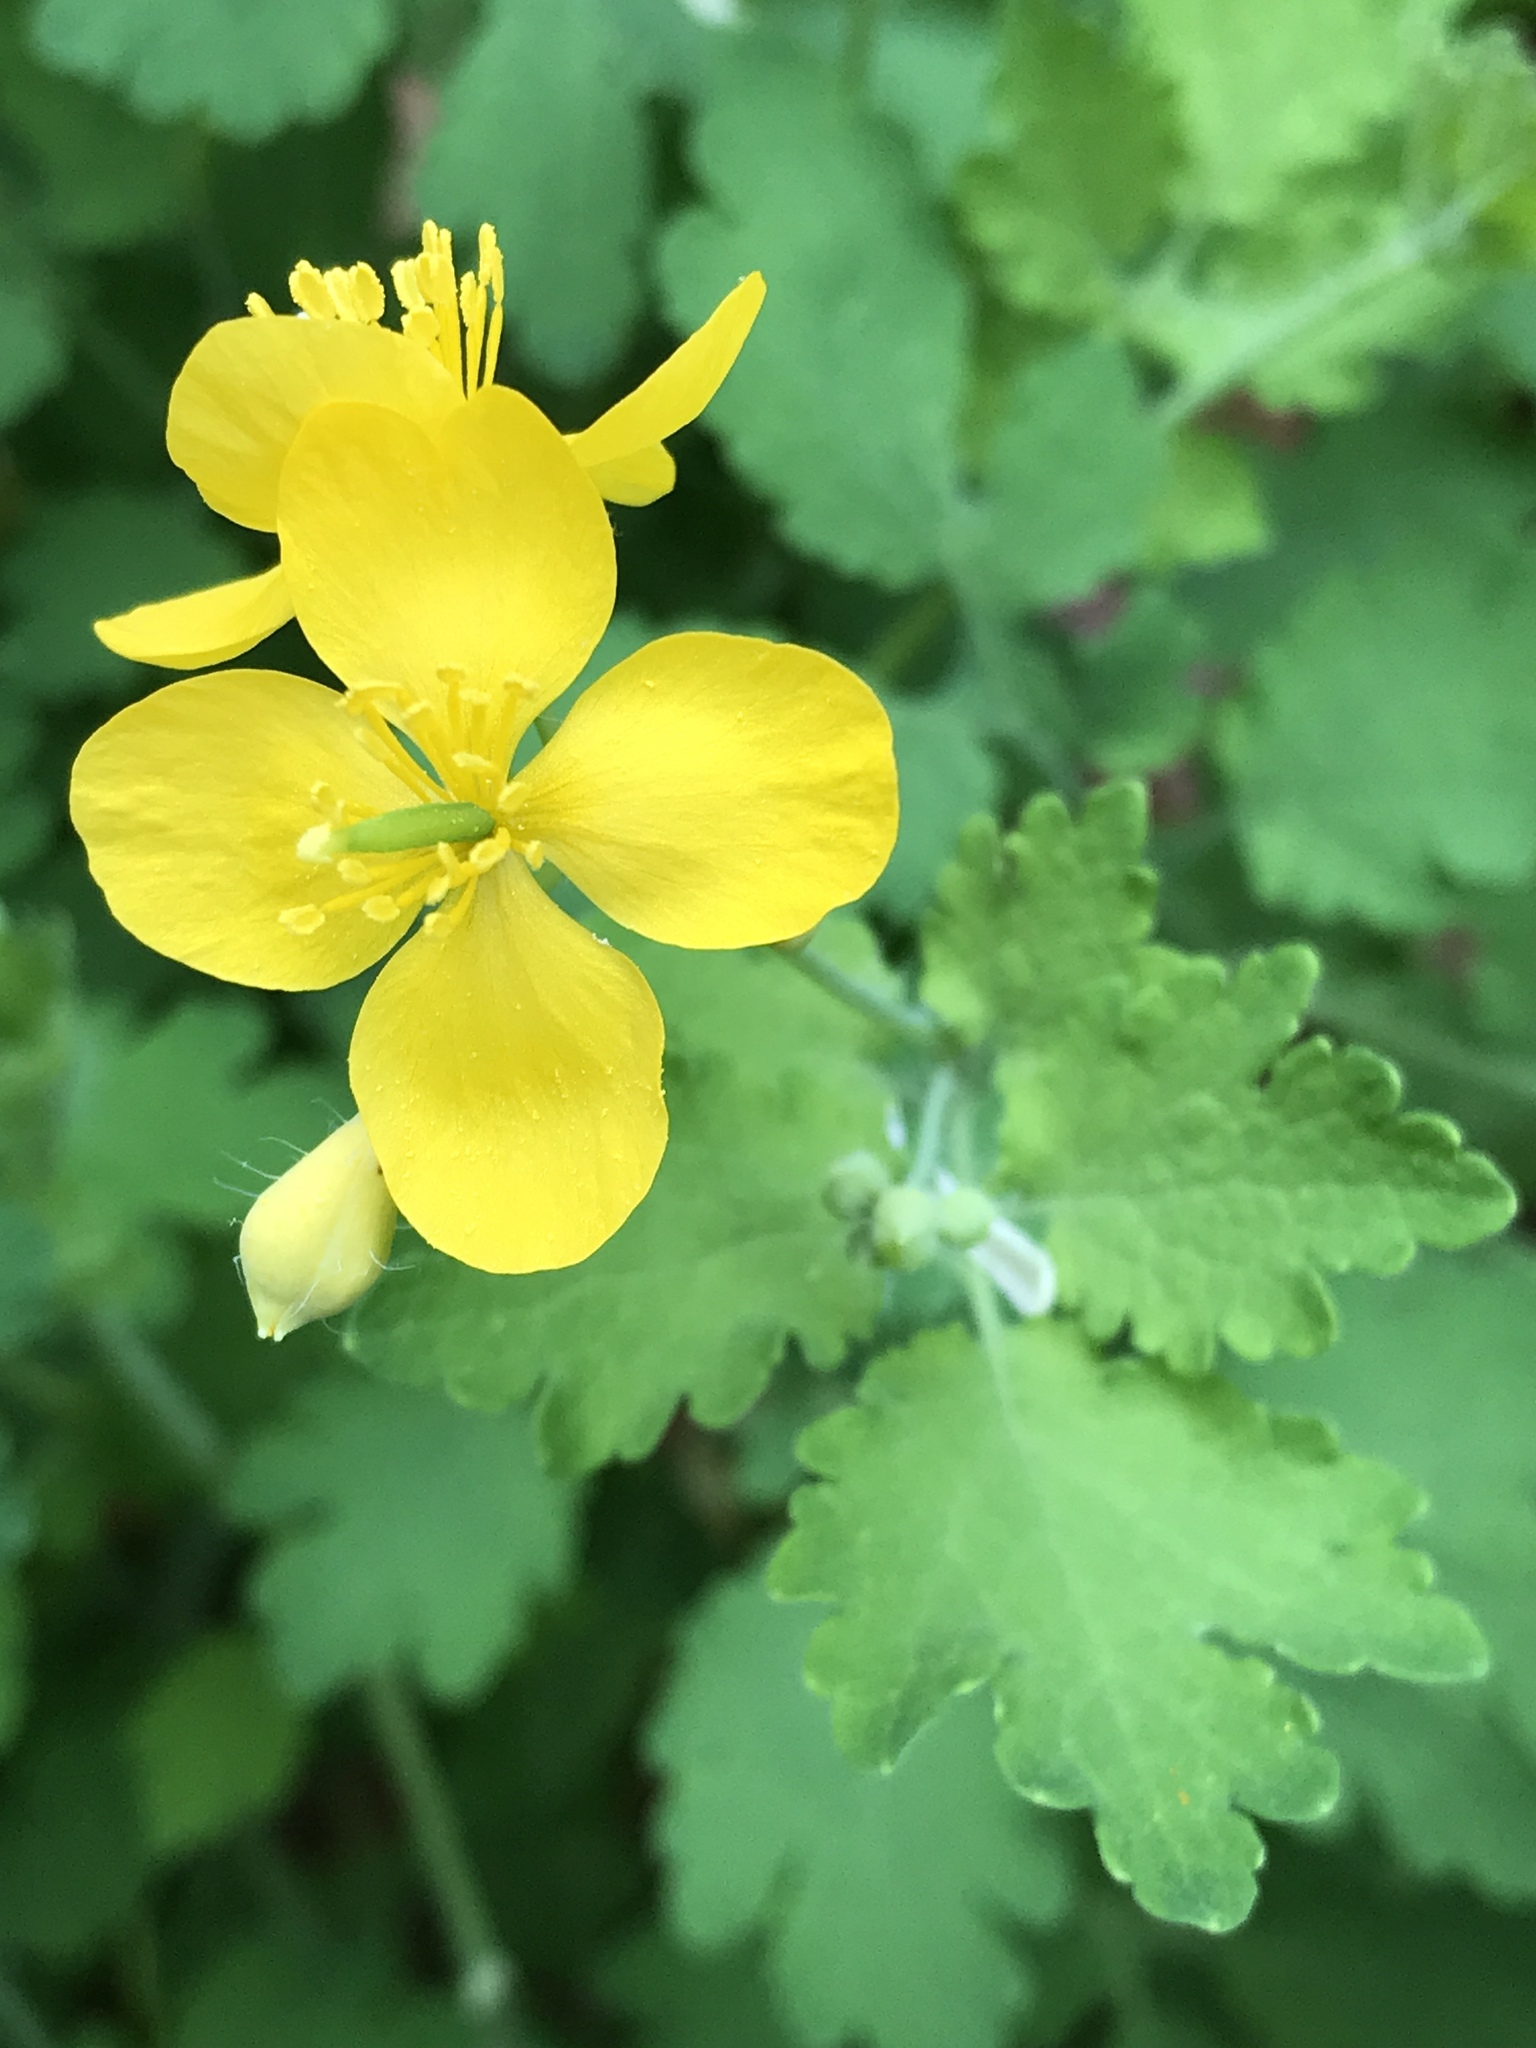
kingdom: Plantae
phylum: Tracheophyta
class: Magnoliopsida
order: Ranunculales
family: Papaveraceae
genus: Chelidonium
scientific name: Chelidonium majus
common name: Greater celandine
